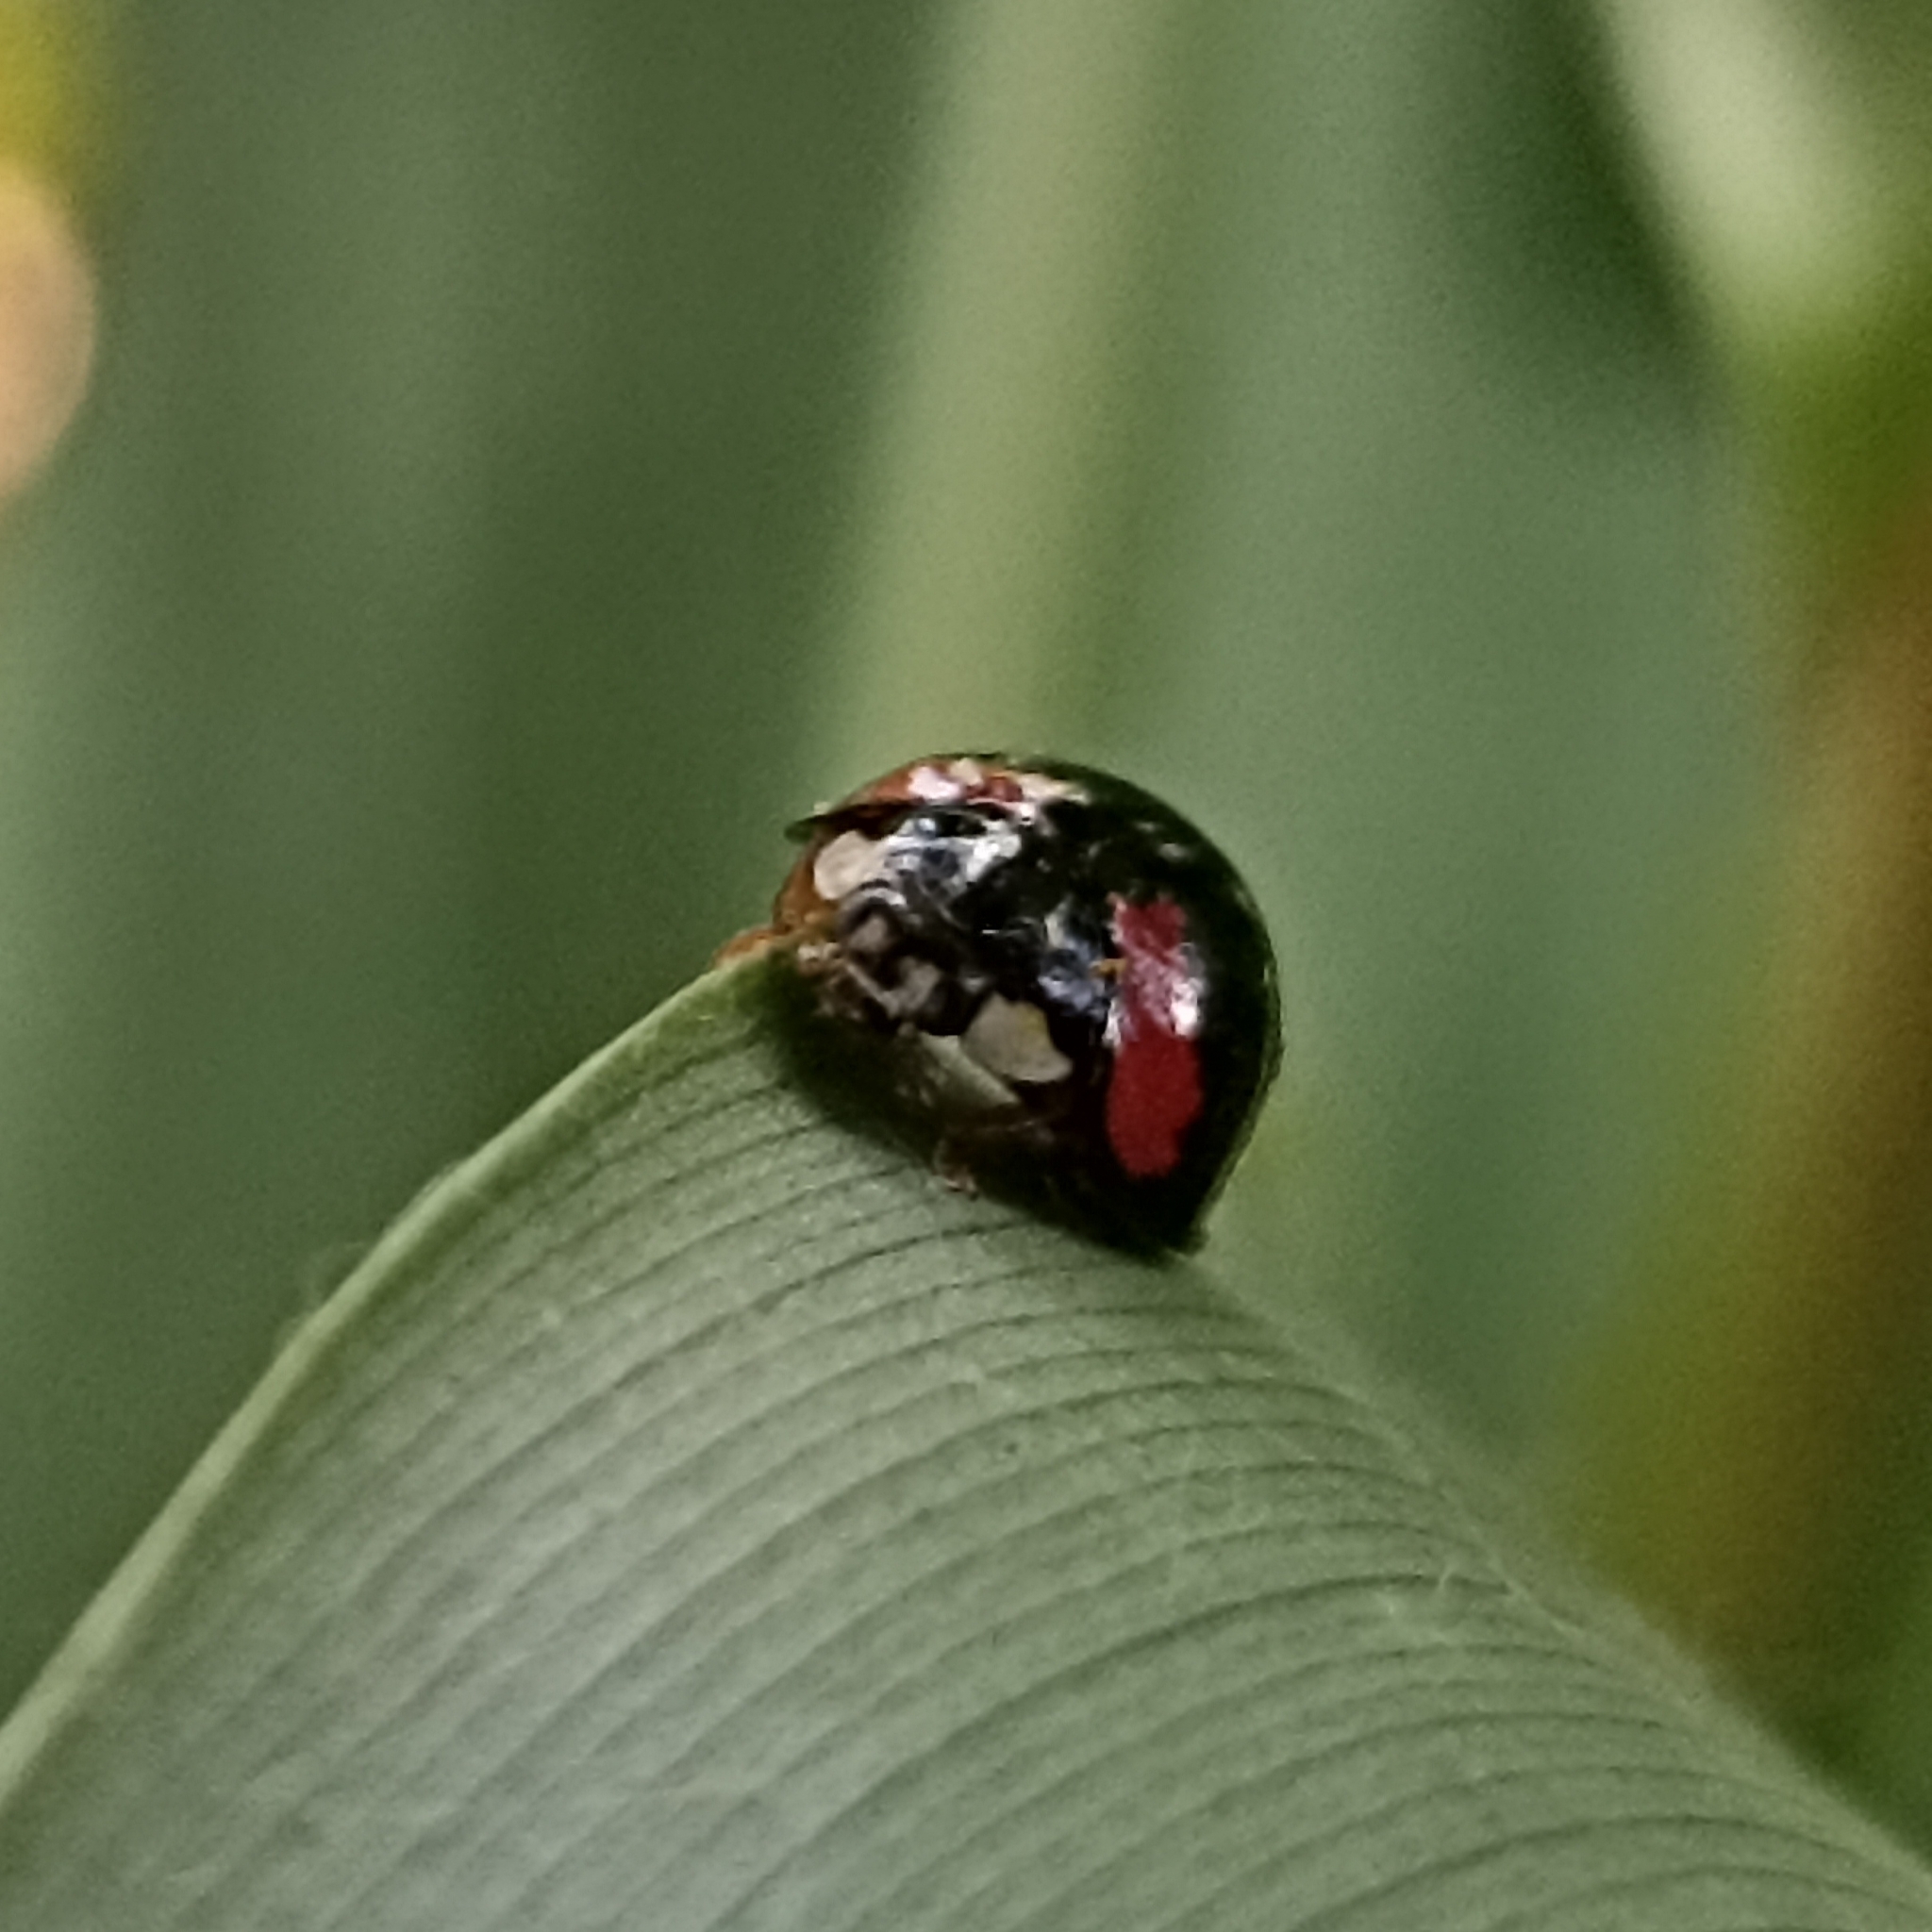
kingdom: Animalia
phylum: Arthropoda
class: Insecta
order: Coleoptera
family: Coccinellidae
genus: Cheilomenes
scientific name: Cheilomenes sexmaculata
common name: Ladybird beetle
